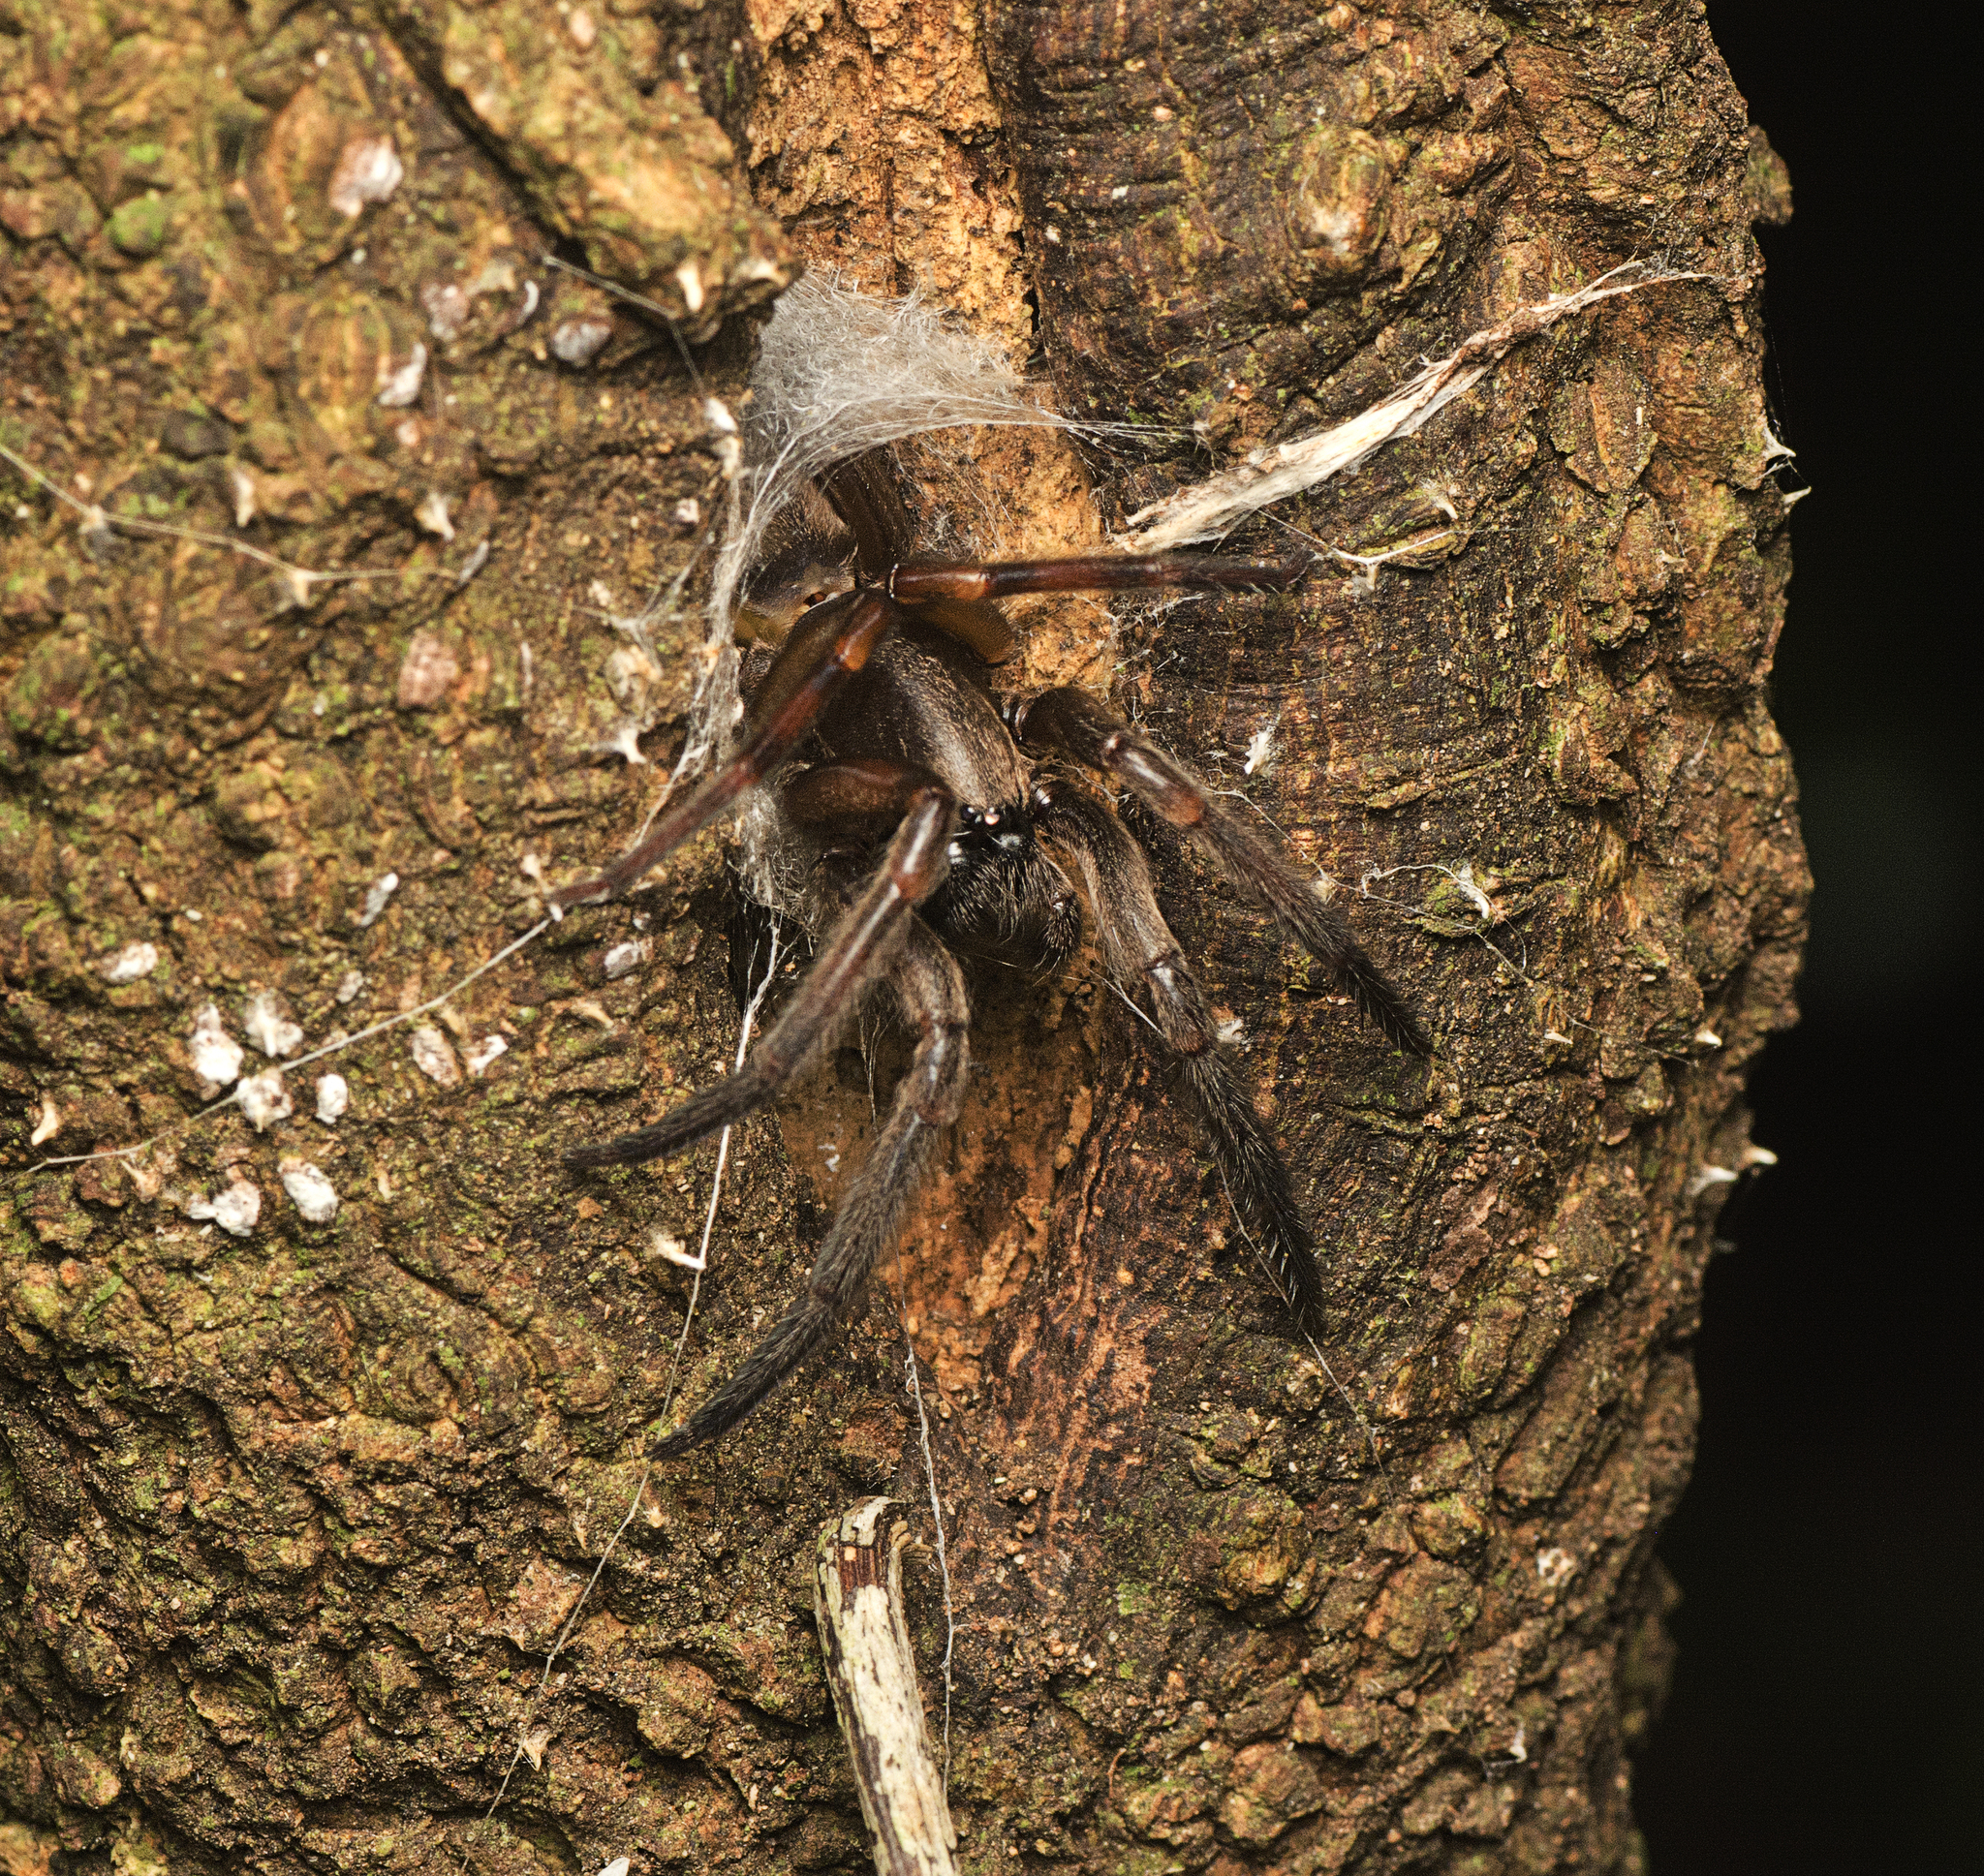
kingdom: Animalia
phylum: Arthropoda
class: Arachnida
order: Araneae
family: Segestriidae
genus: Gippsicola
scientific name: Gippsicola robusta
